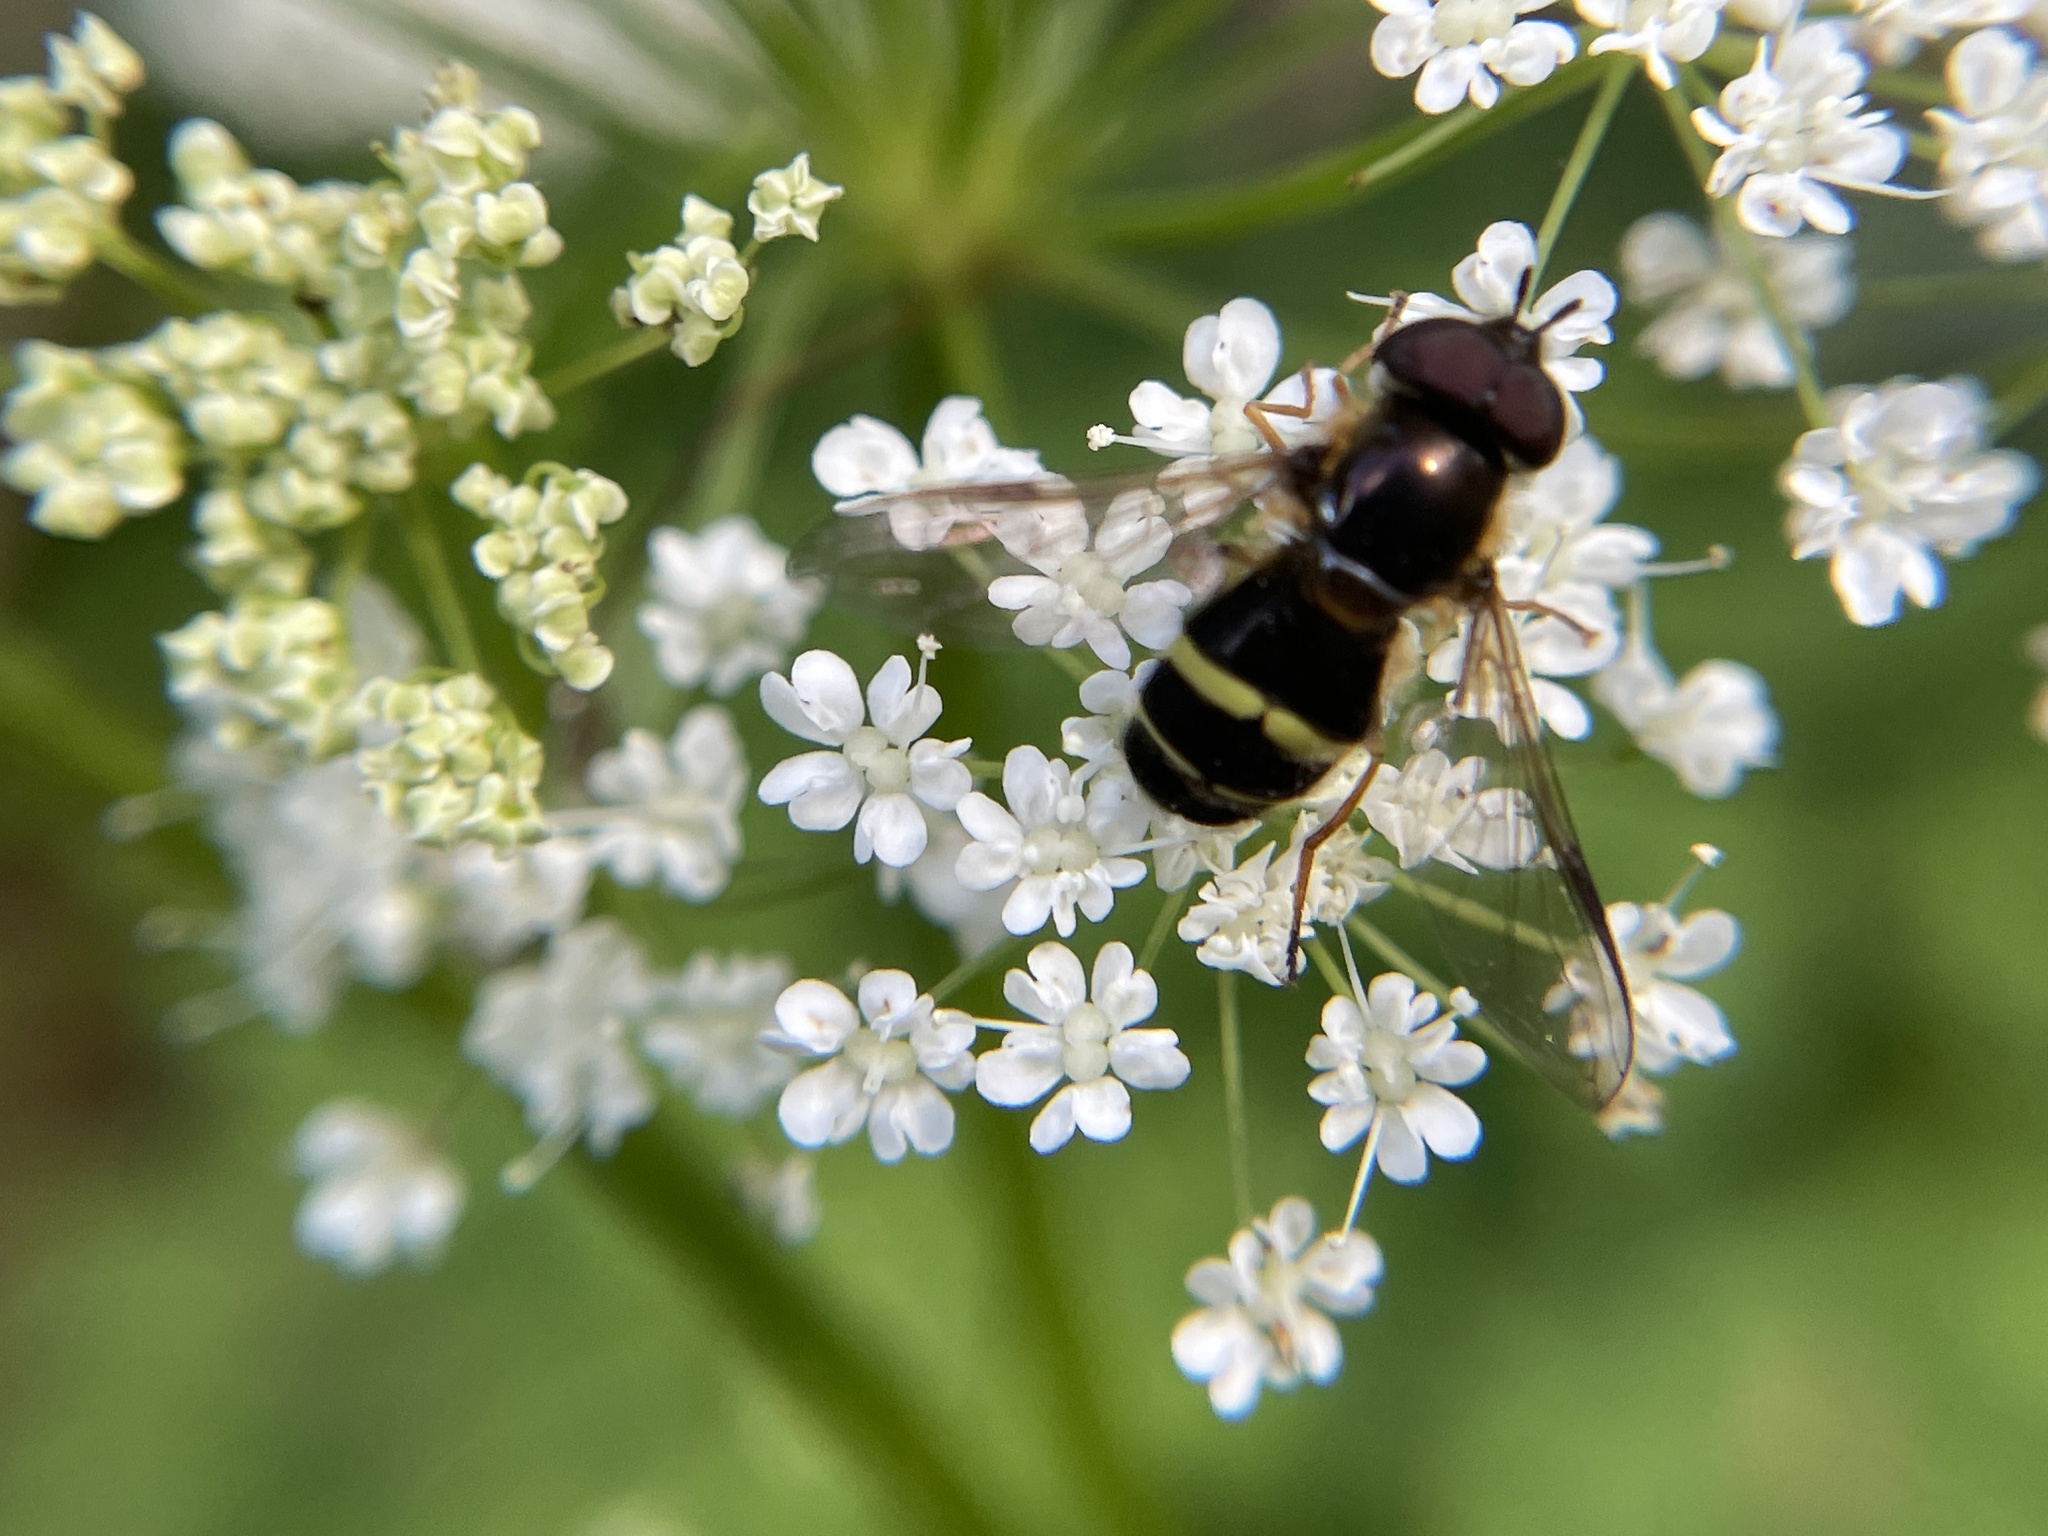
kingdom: Animalia
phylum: Arthropoda
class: Insecta
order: Diptera
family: Syrphidae
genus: Dasysyrphus
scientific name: Dasysyrphus tricinctus
